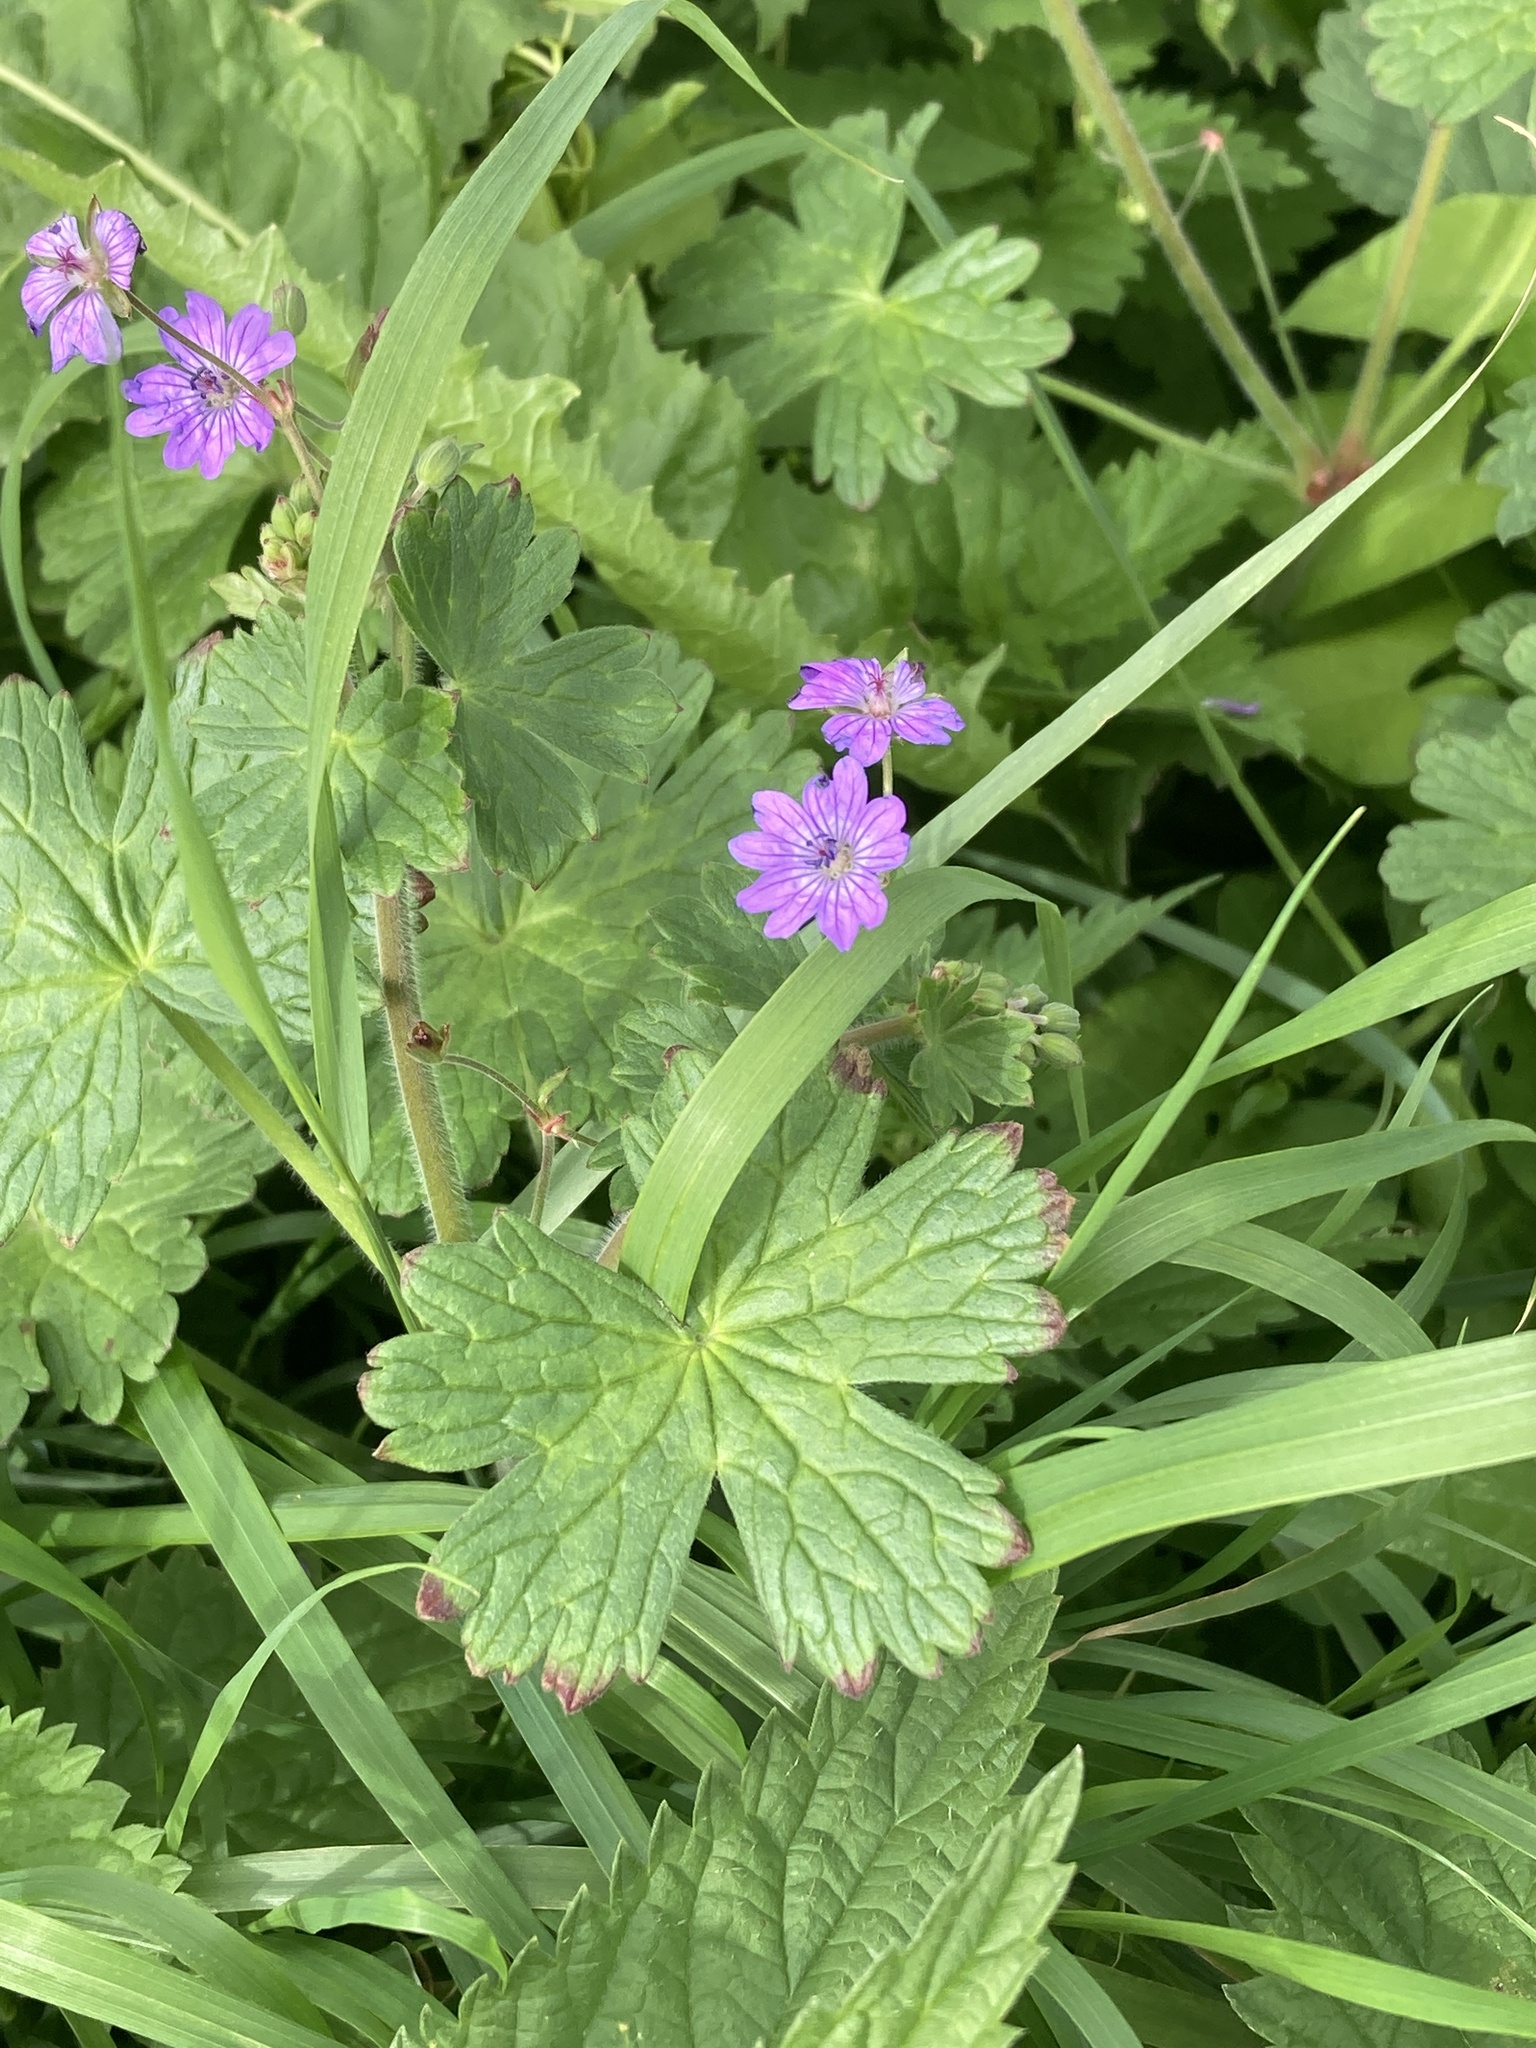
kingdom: Plantae
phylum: Tracheophyta
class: Magnoliopsida
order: Geraniales
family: Geraniaceae
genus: Geranium
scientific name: Geranium pyrenaicum
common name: Hedgerow crane's-bill
